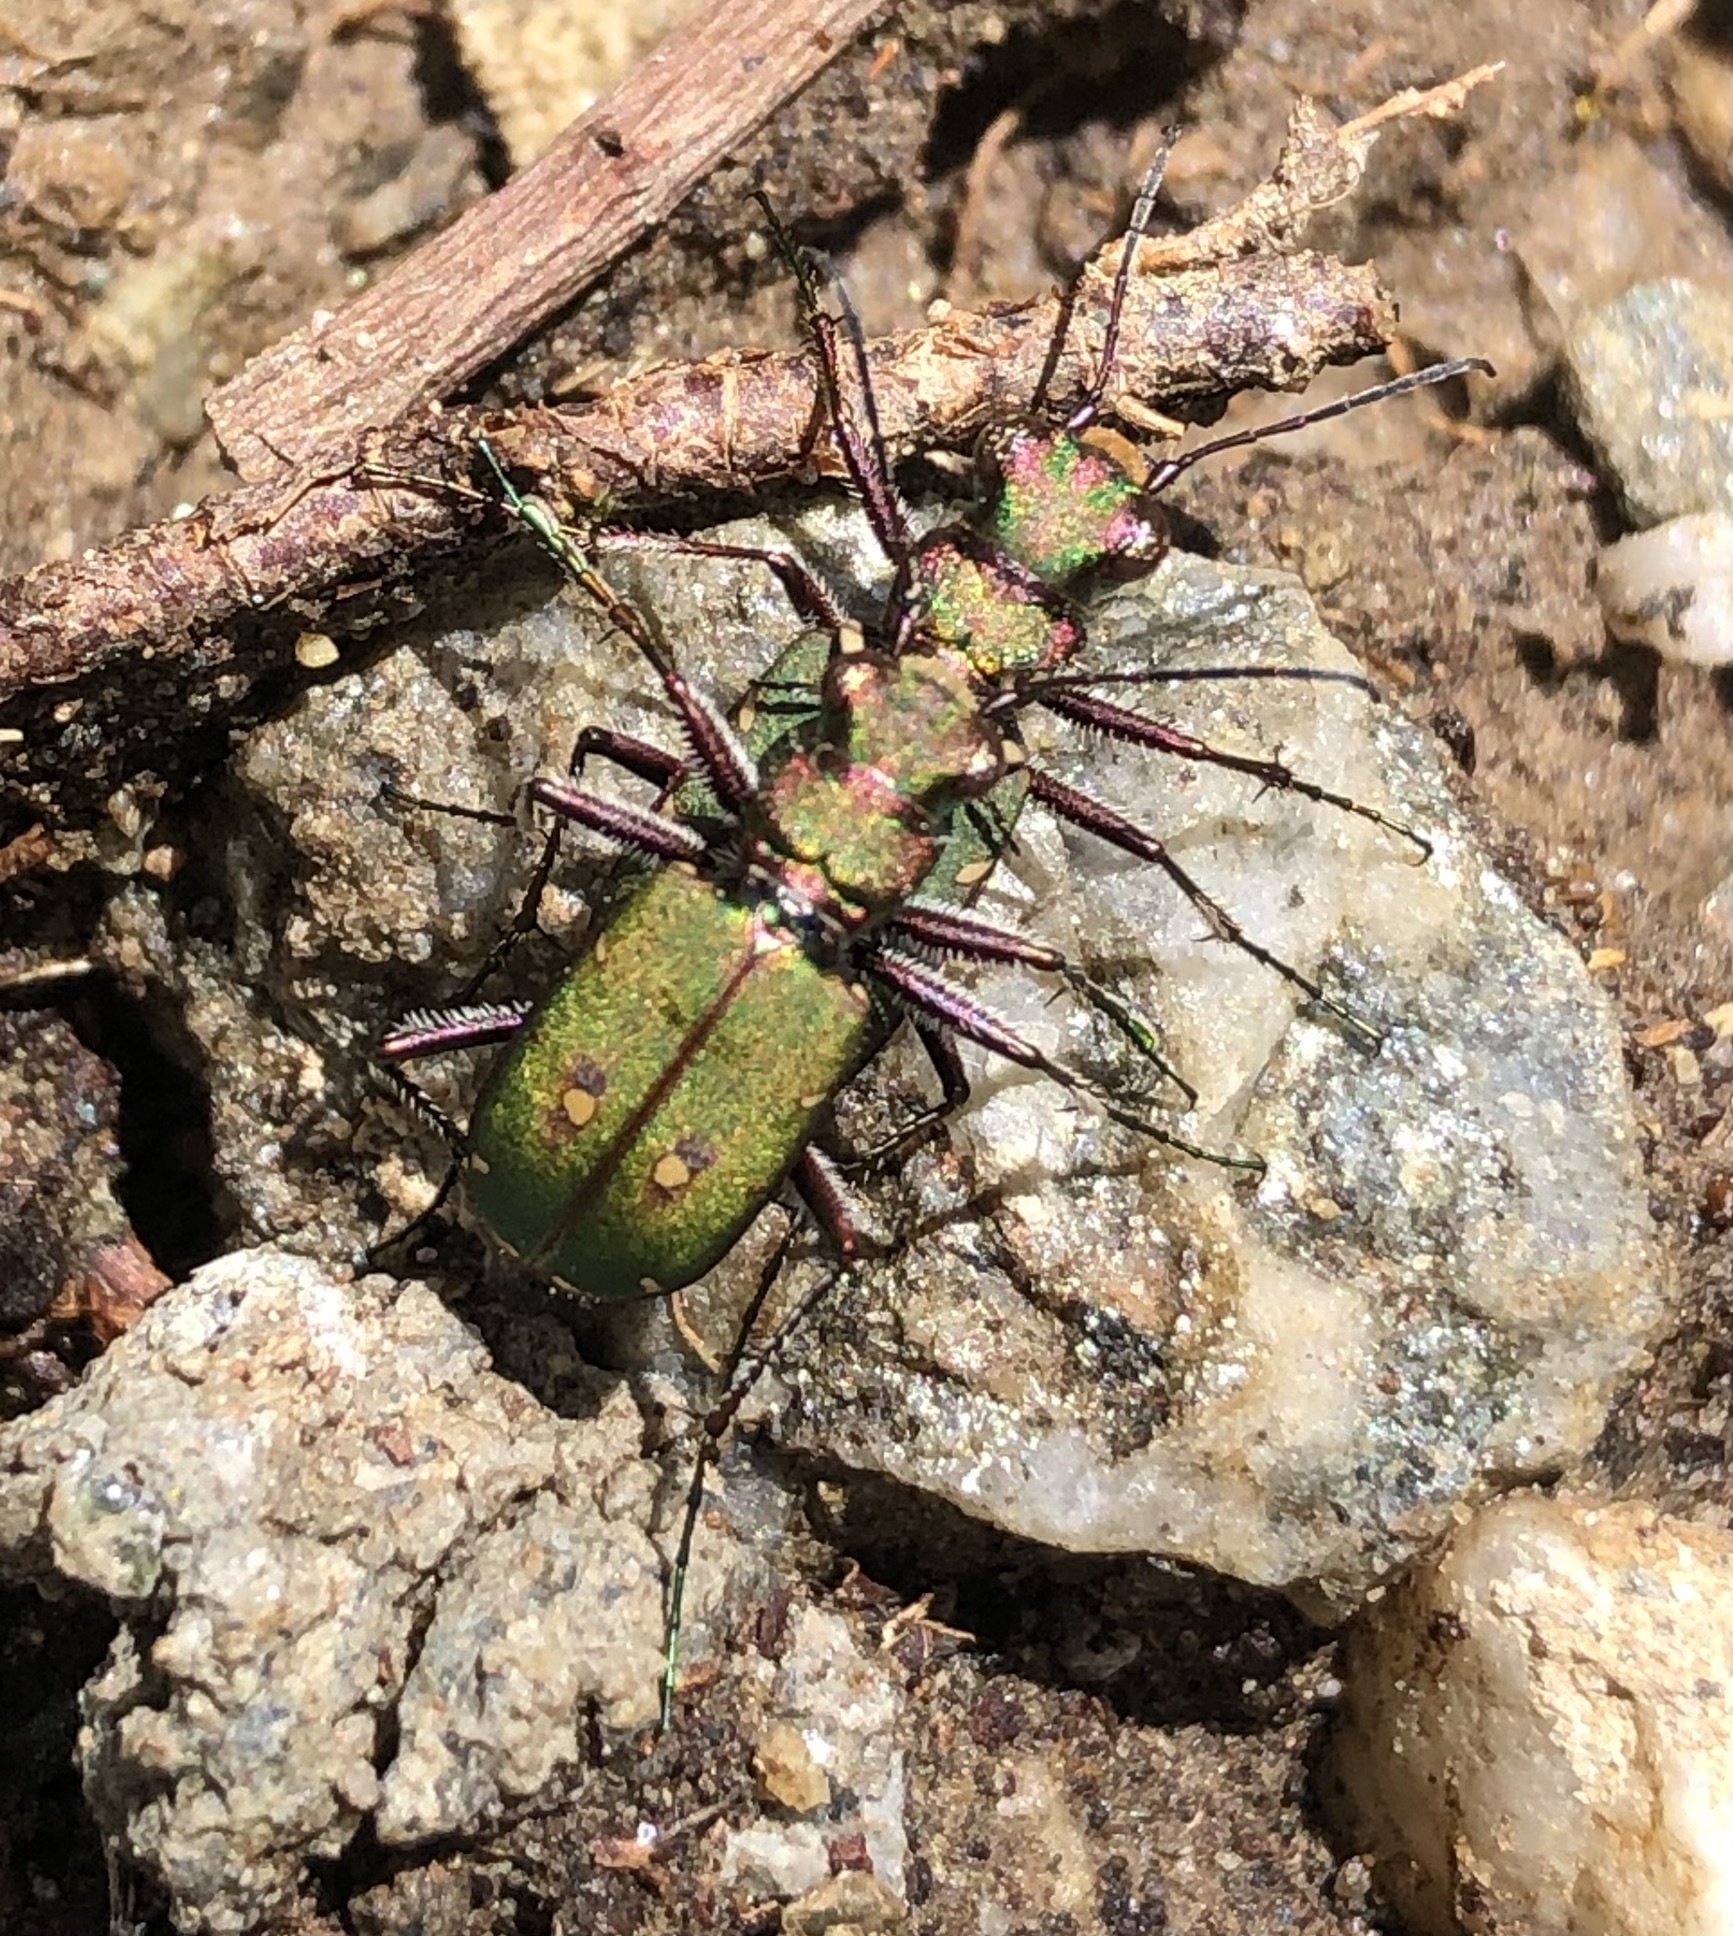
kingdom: Animalia
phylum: Arthropoda
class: Insecta
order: Coleoptera
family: Carabidae
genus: Cicindela
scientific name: Cicindela campestris
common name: Common tiger beetle
